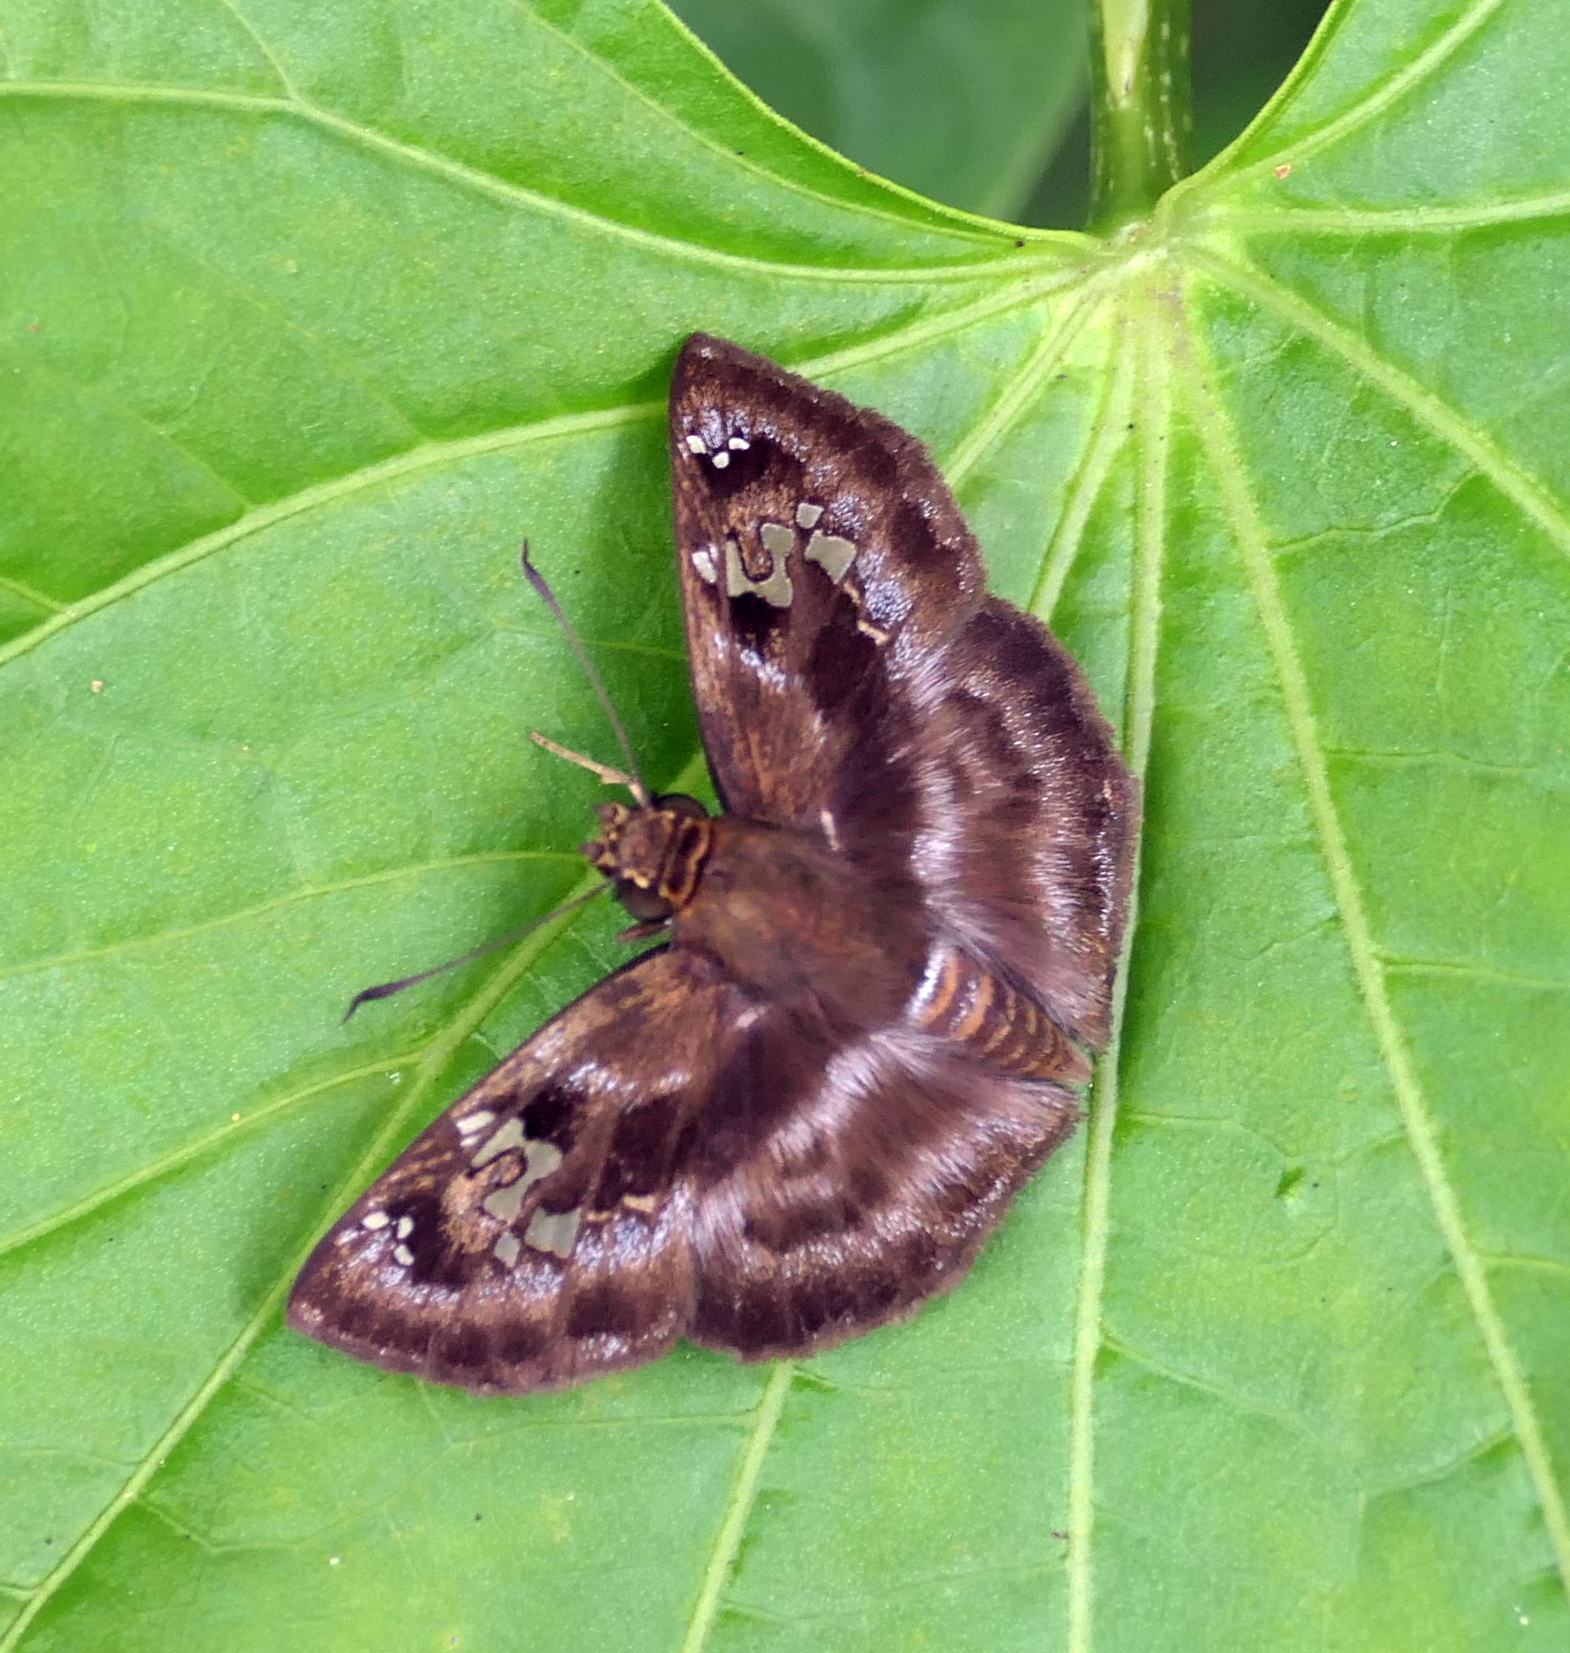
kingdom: Animalia
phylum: Arthropoda
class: Insecta
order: Lepidoptera
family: Hesperiidae
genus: Quadrus
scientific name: Quadrus cerialis
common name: Common blue-skipper
